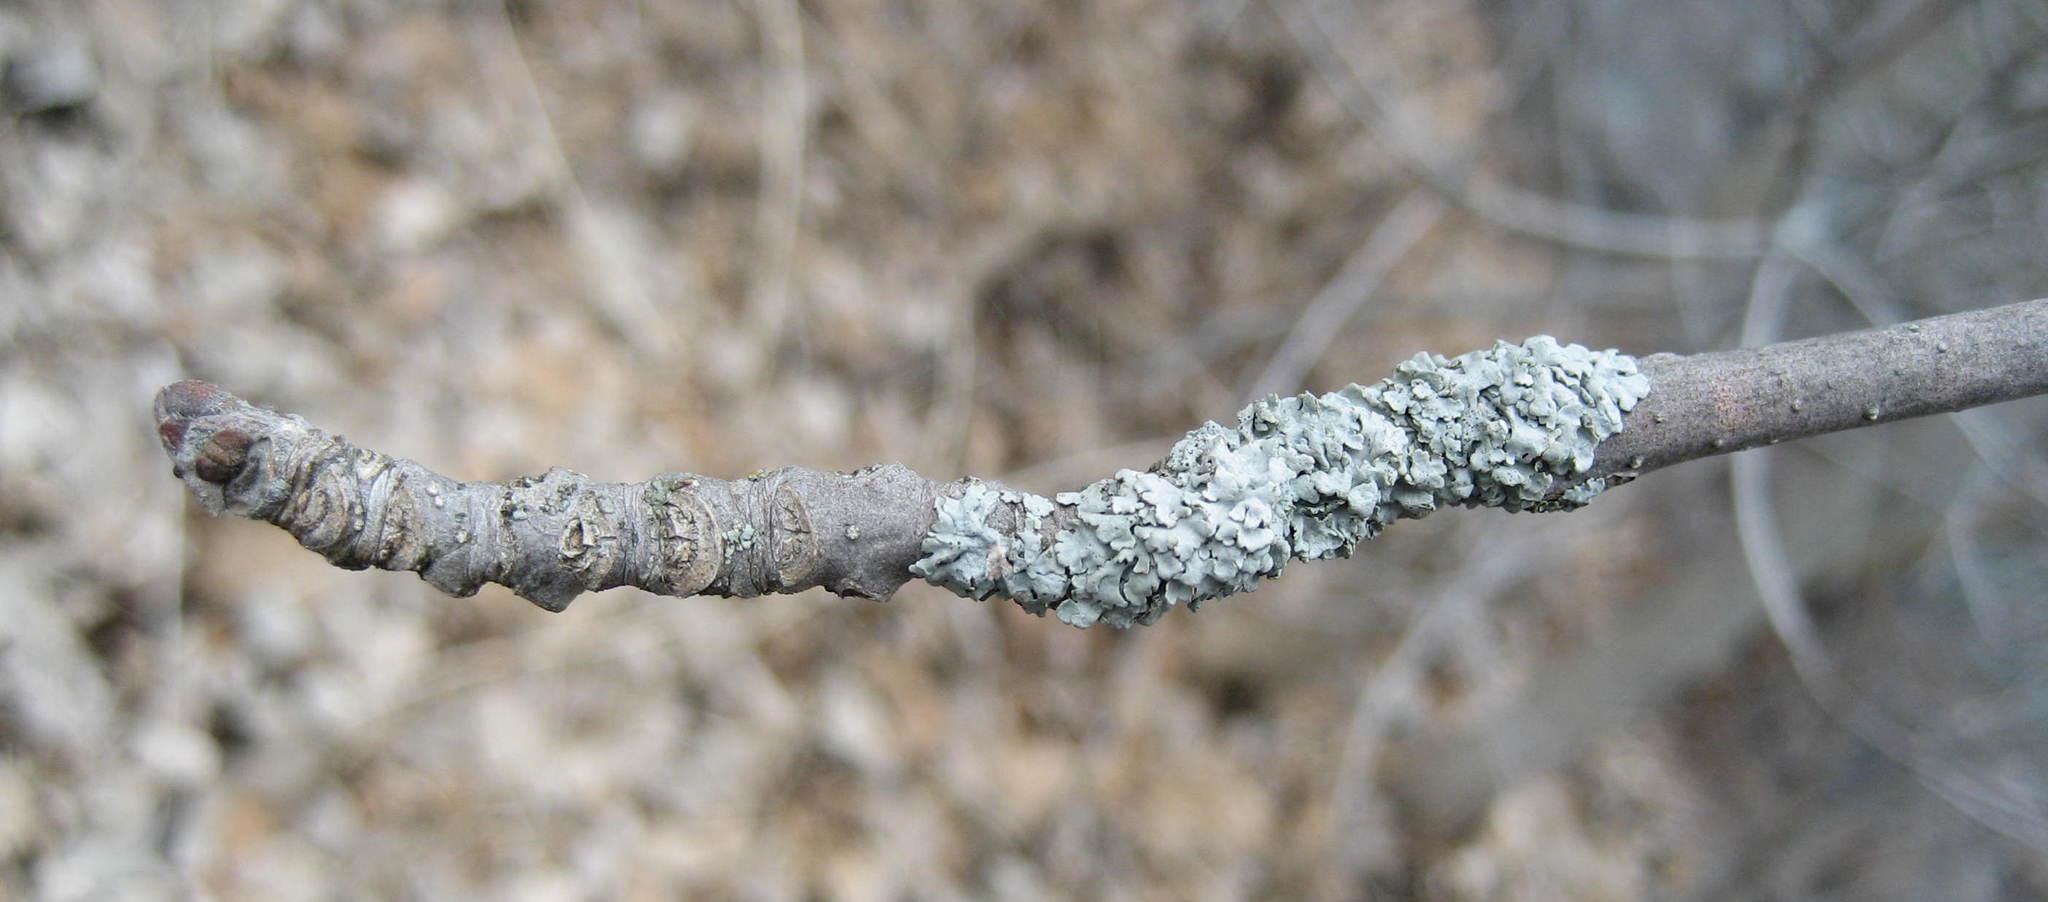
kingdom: Plantae
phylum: Tracheophyta
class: Magnoliopsida
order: Lamiales
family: Oleaceae
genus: Fraxinus
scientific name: Fraxinus pennsylvanica
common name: Green ash
